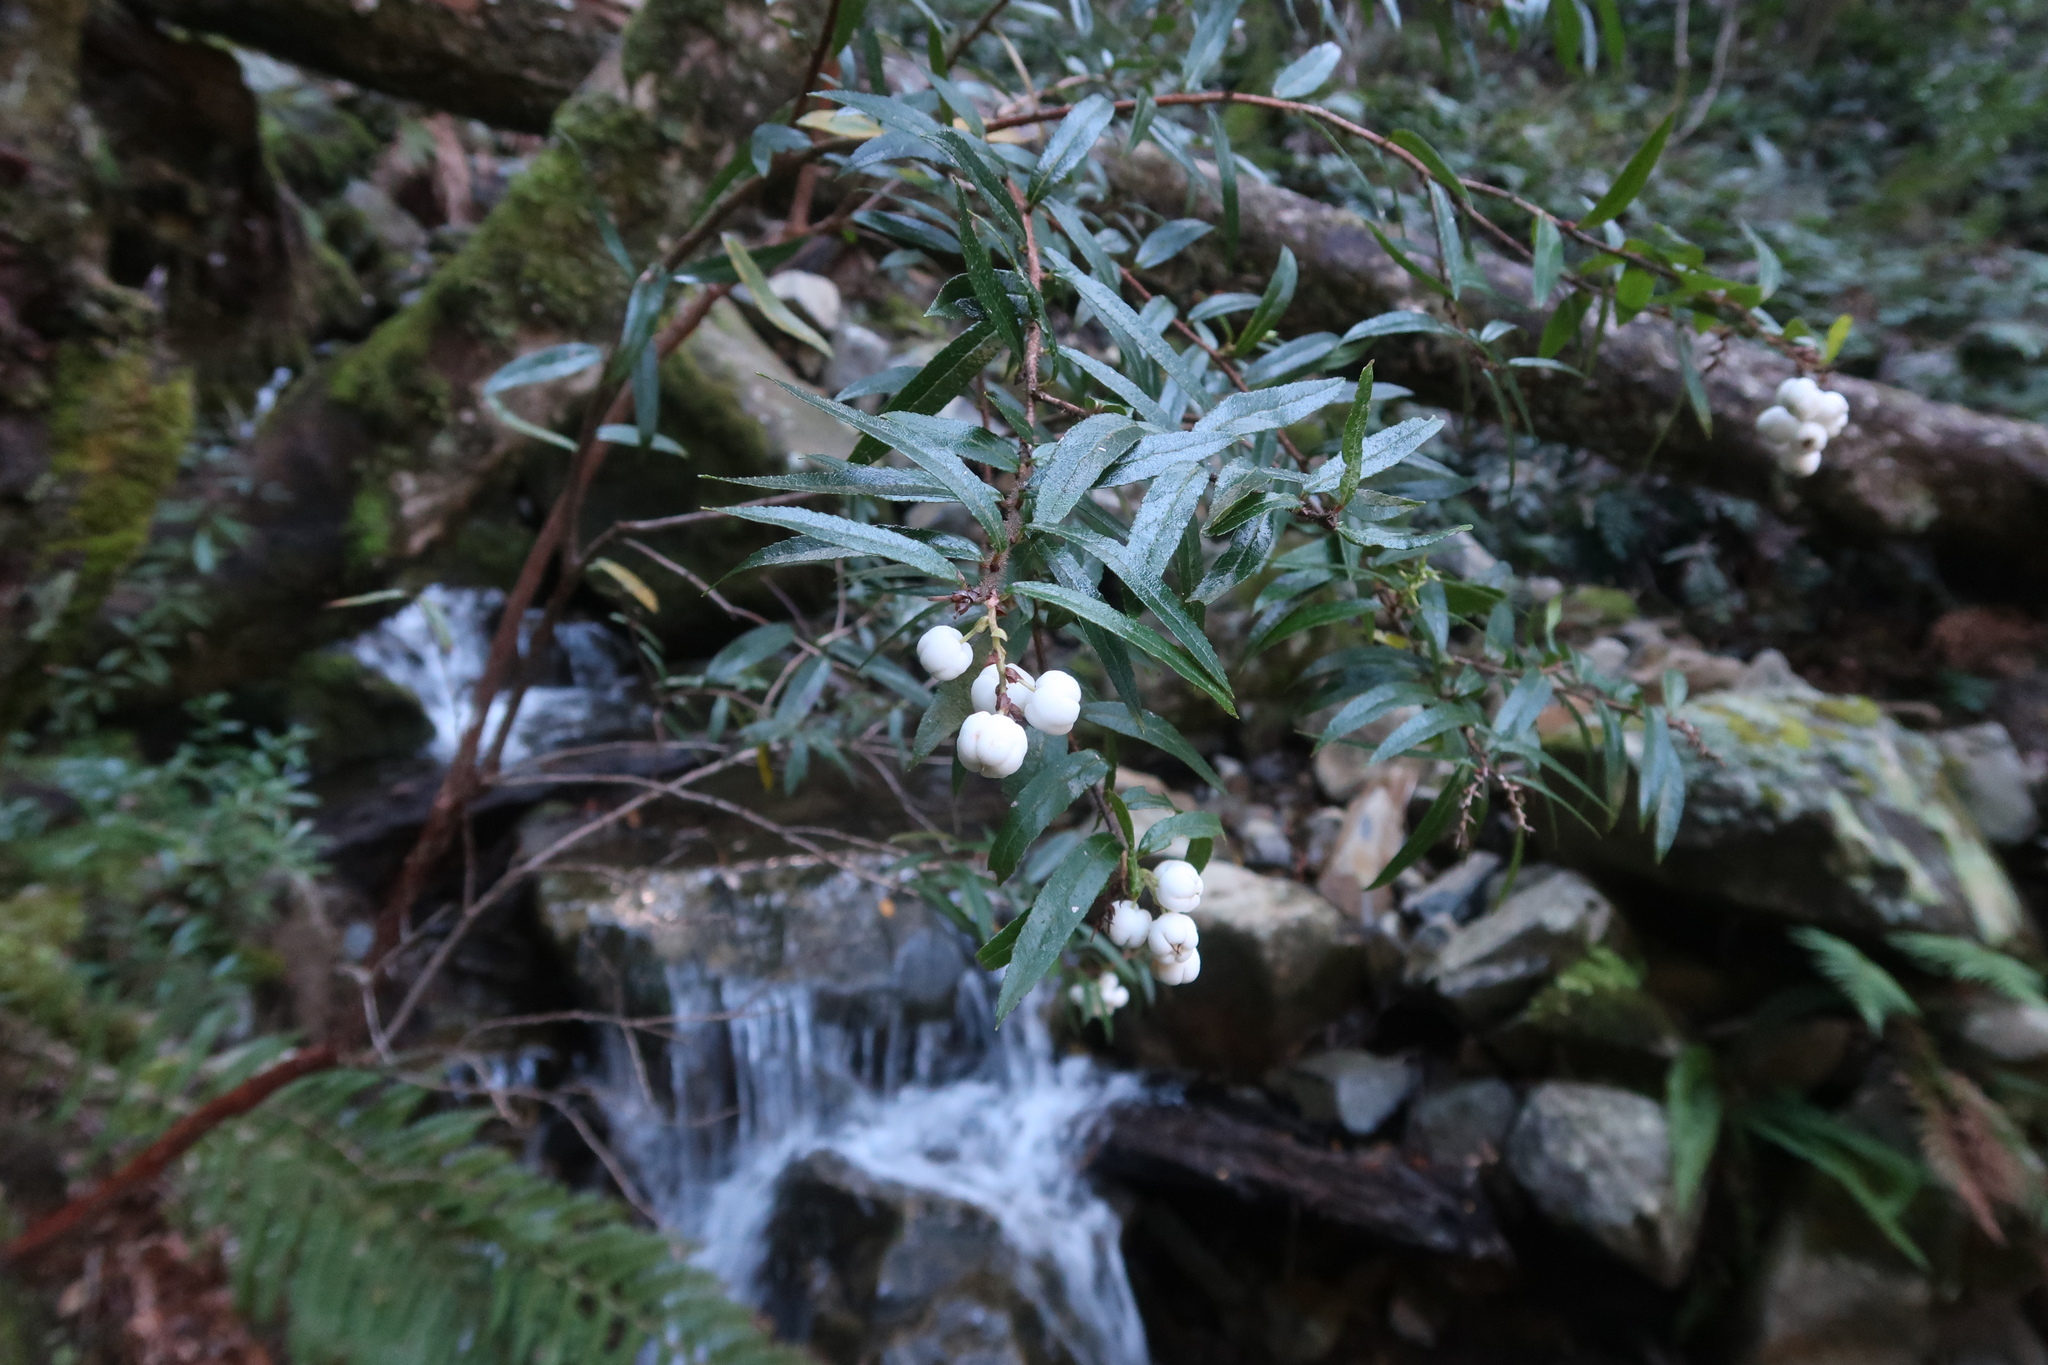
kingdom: Plantae
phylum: Tracheophyta
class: Magnoliopsida
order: Ericales
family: Ericaceae
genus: Gaultheria
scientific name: Gaultheria hispida
